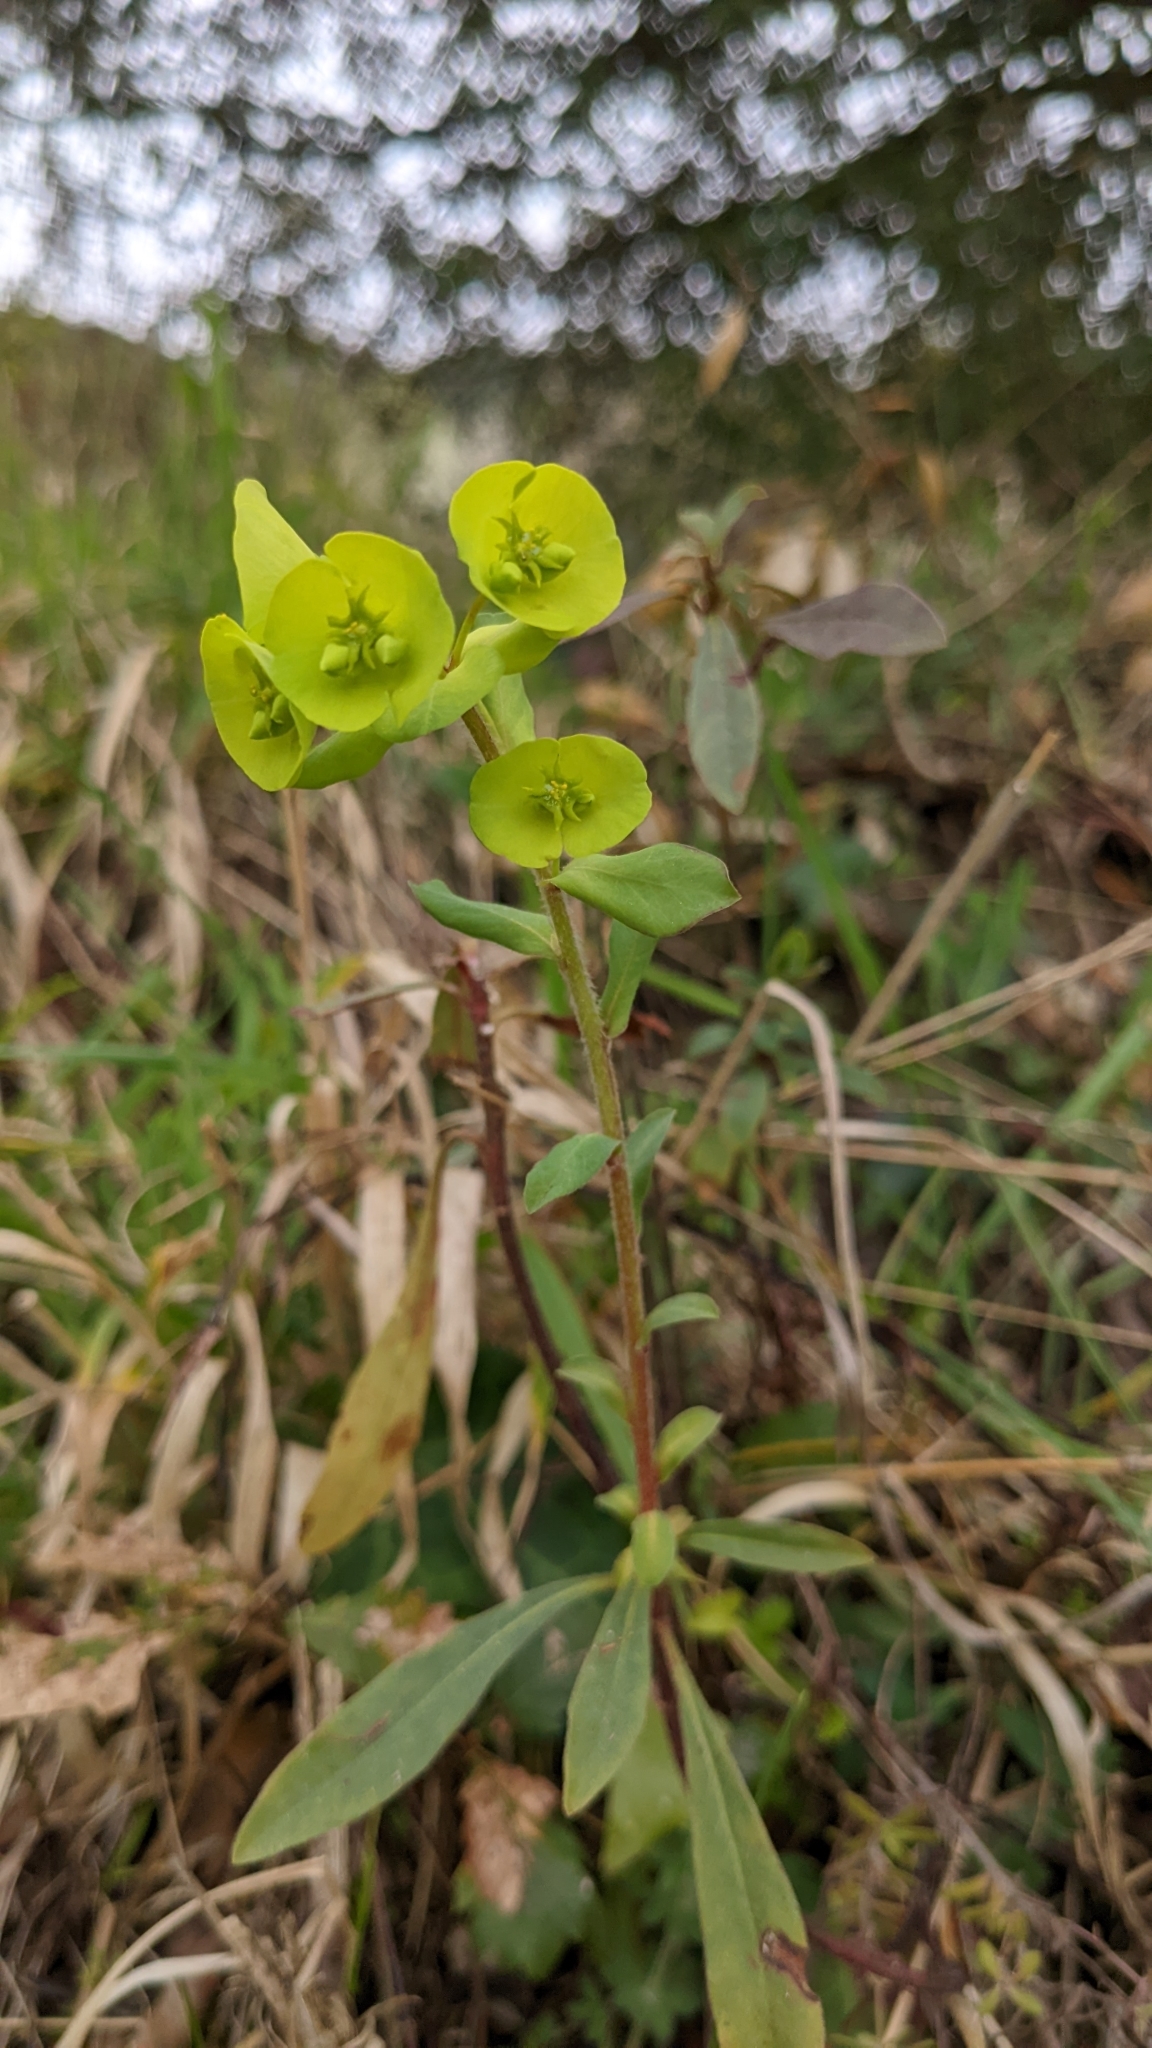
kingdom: Plantae
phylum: Tracheophyta
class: Magnoliopsida
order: Malpighiales
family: Euphorbiaceae
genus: Euphorbia
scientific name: Euphorbia amygdaloides
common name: Wood spurge
